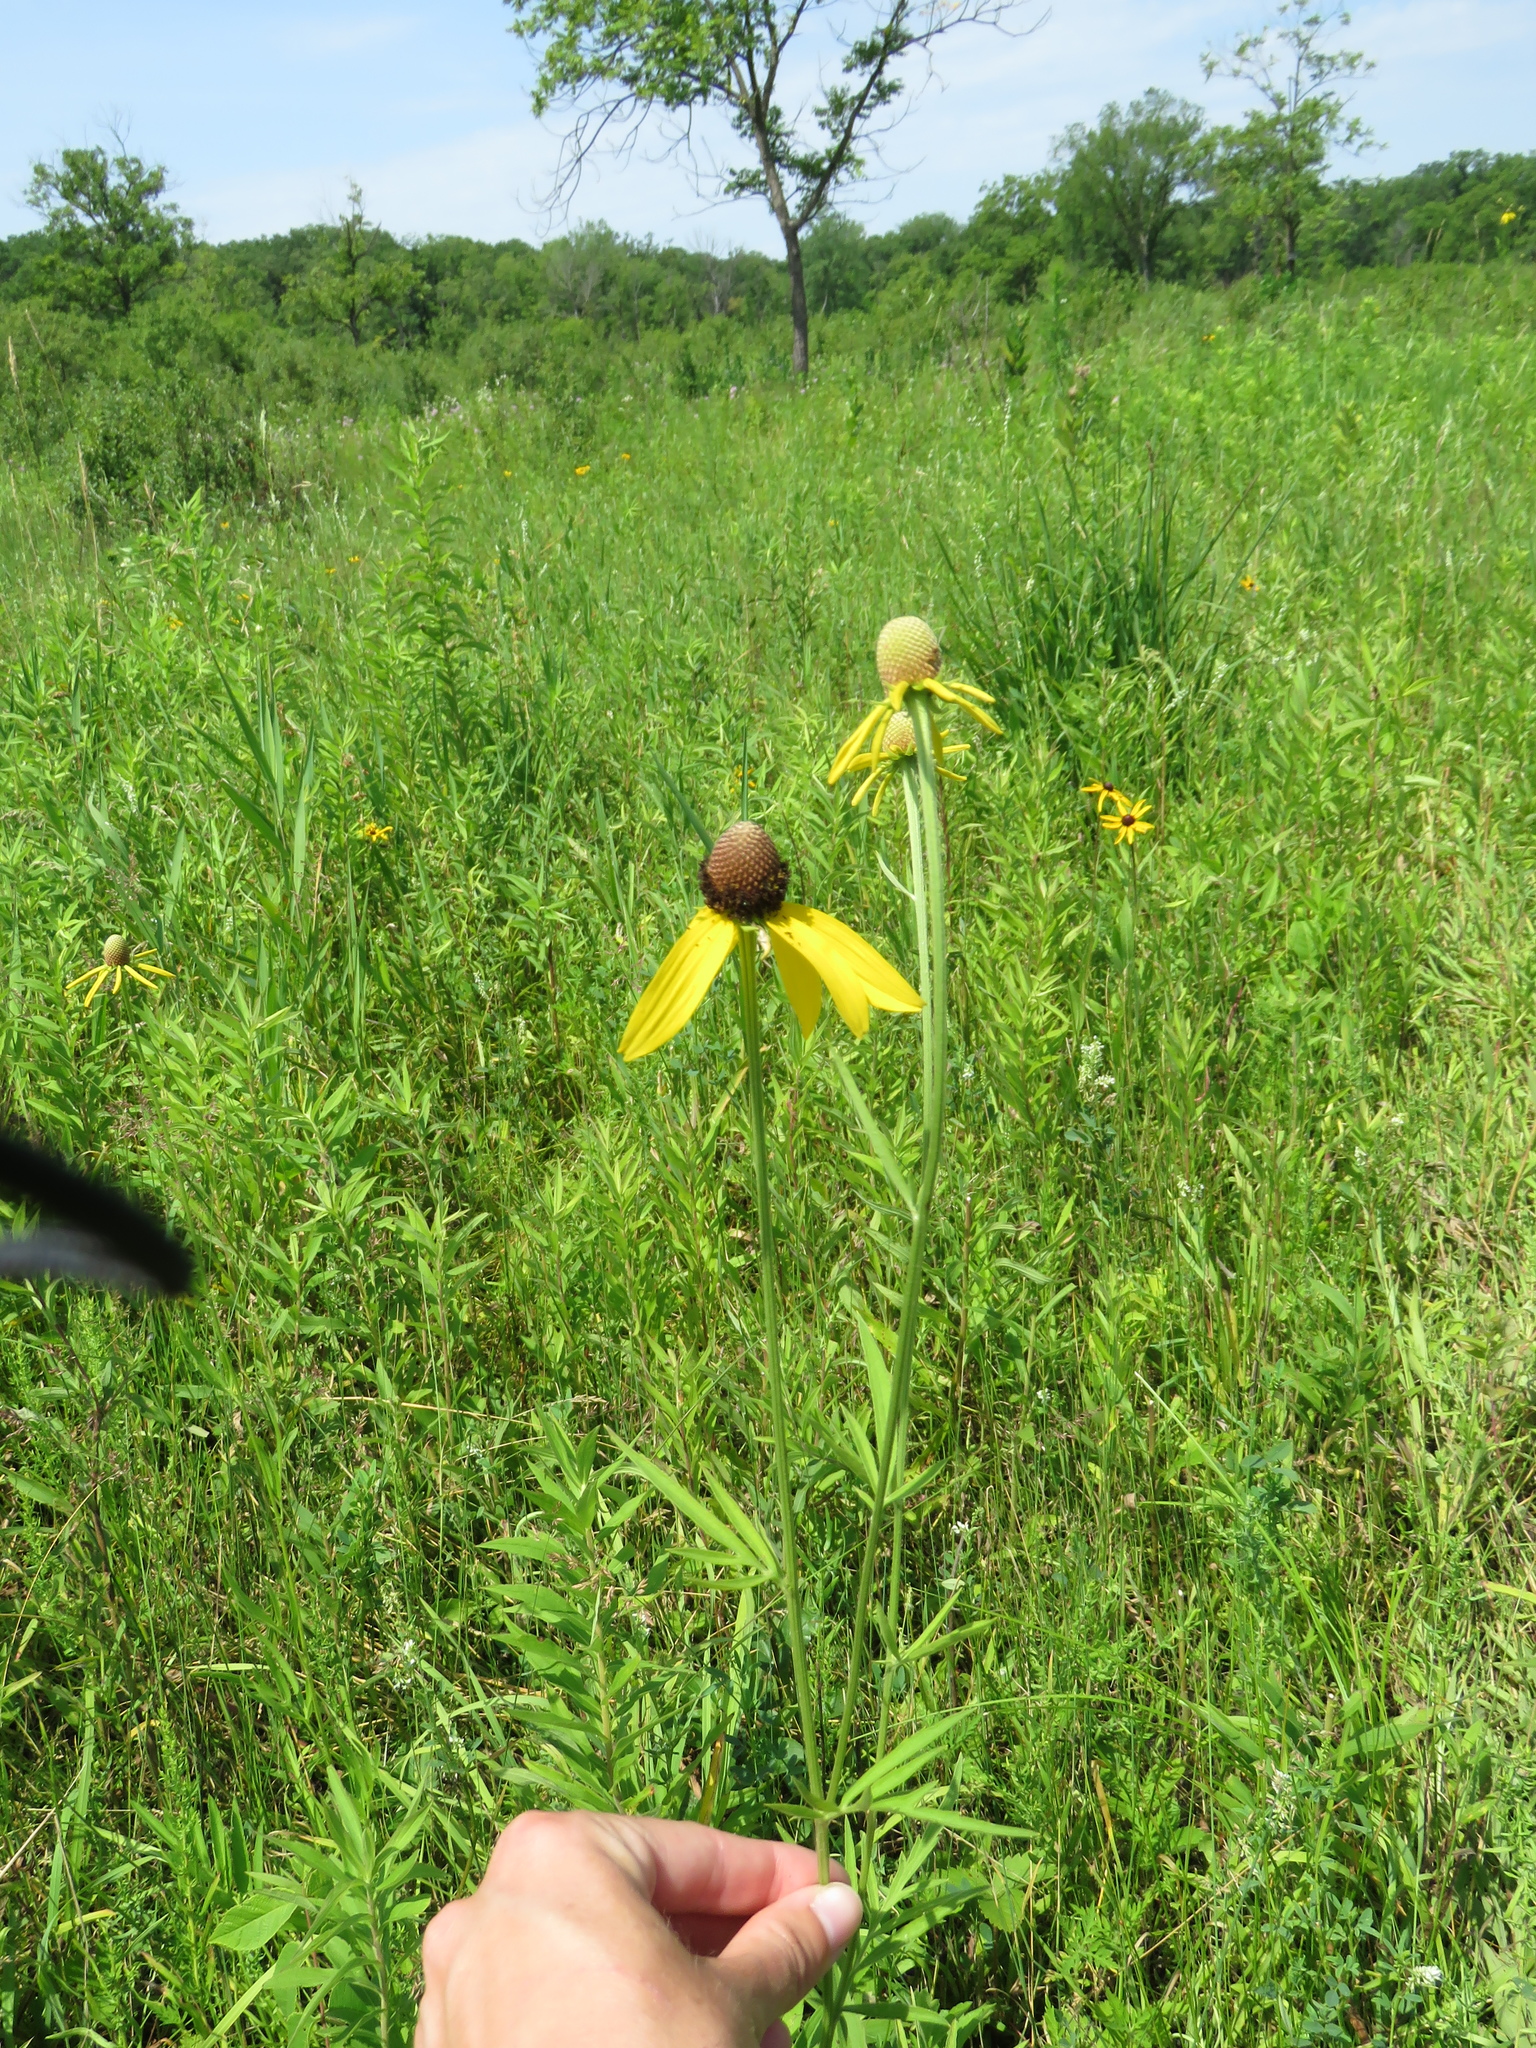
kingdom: Plantae
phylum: Tracheophyta
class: Magnoliopsida
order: Asterales
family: Asteraceae
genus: Ratibida
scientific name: Ratibida pinnata
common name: Drooping prairie-coneflower
